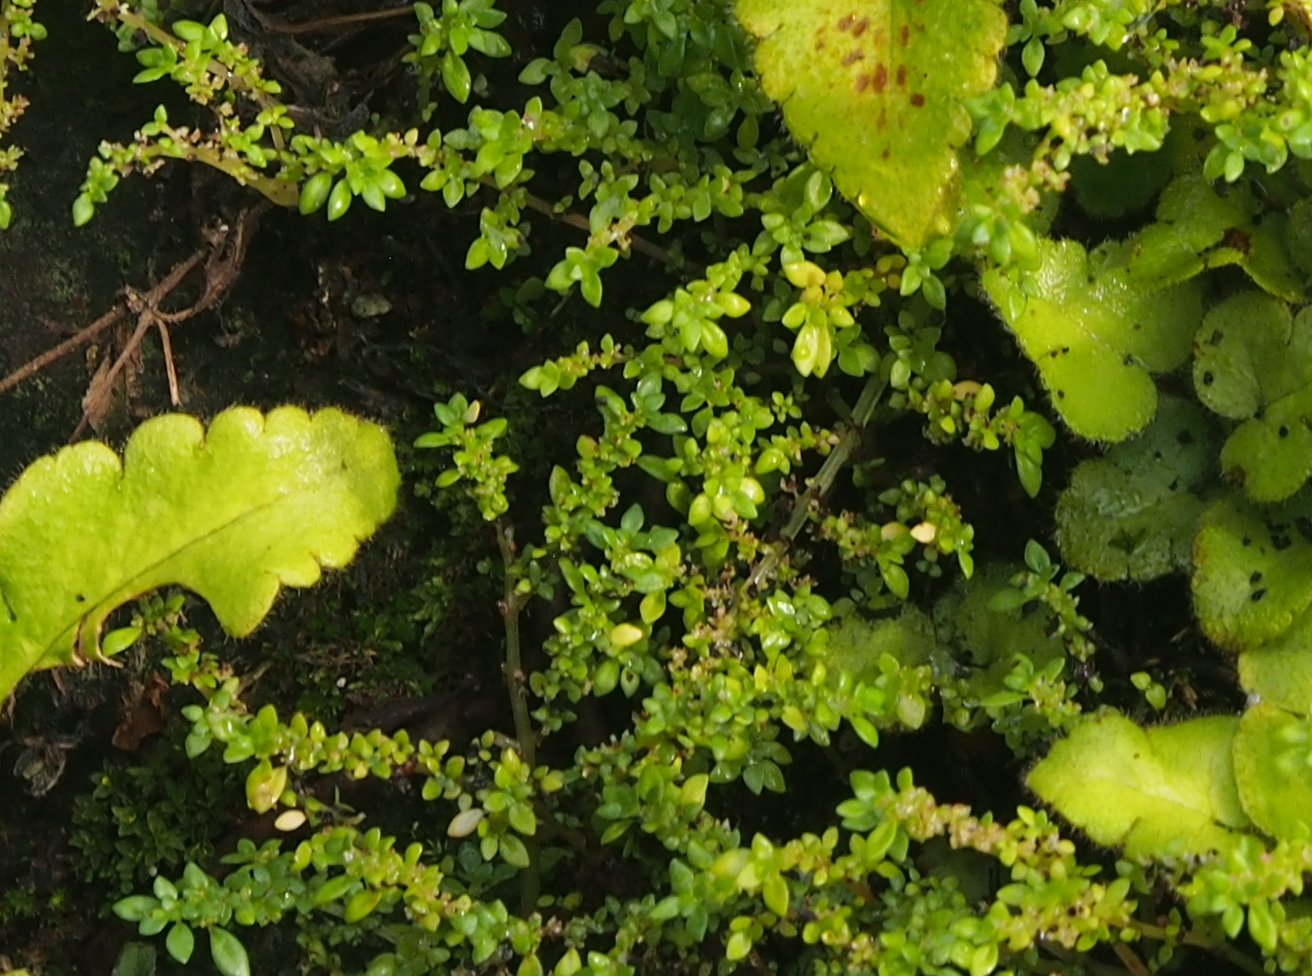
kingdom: Plantae
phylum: Tracheophyta
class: Magnoliopsida
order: Rosales
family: Urticaceae
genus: Pilea
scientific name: Pilea microphylla
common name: Artillery-plant
